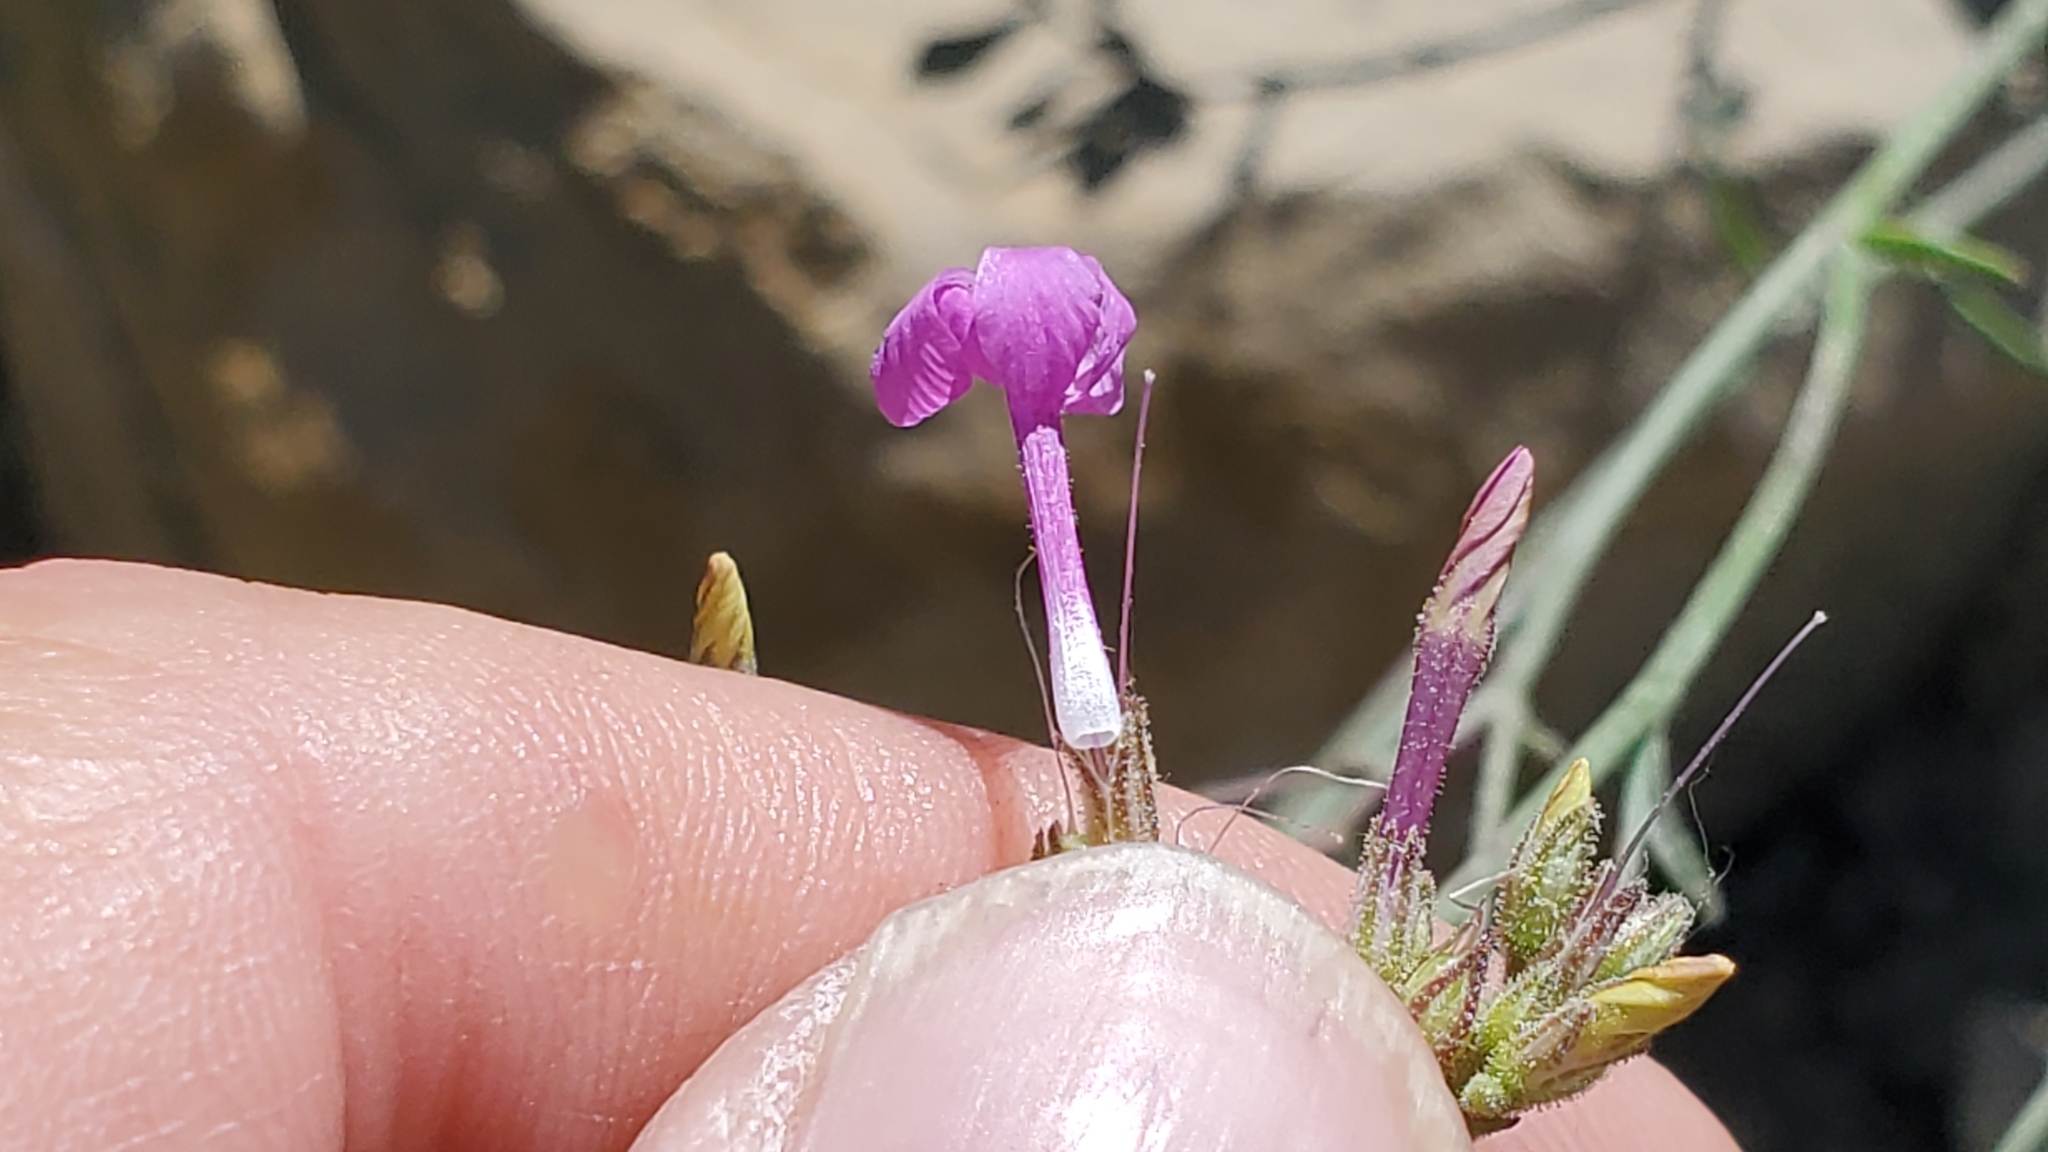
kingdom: Plantae
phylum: Tracheophyta
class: Magnoliopsida
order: Ericales
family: Polemoniaceae
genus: Aliciella
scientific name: Aliciella haydenii
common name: San juan gilia
